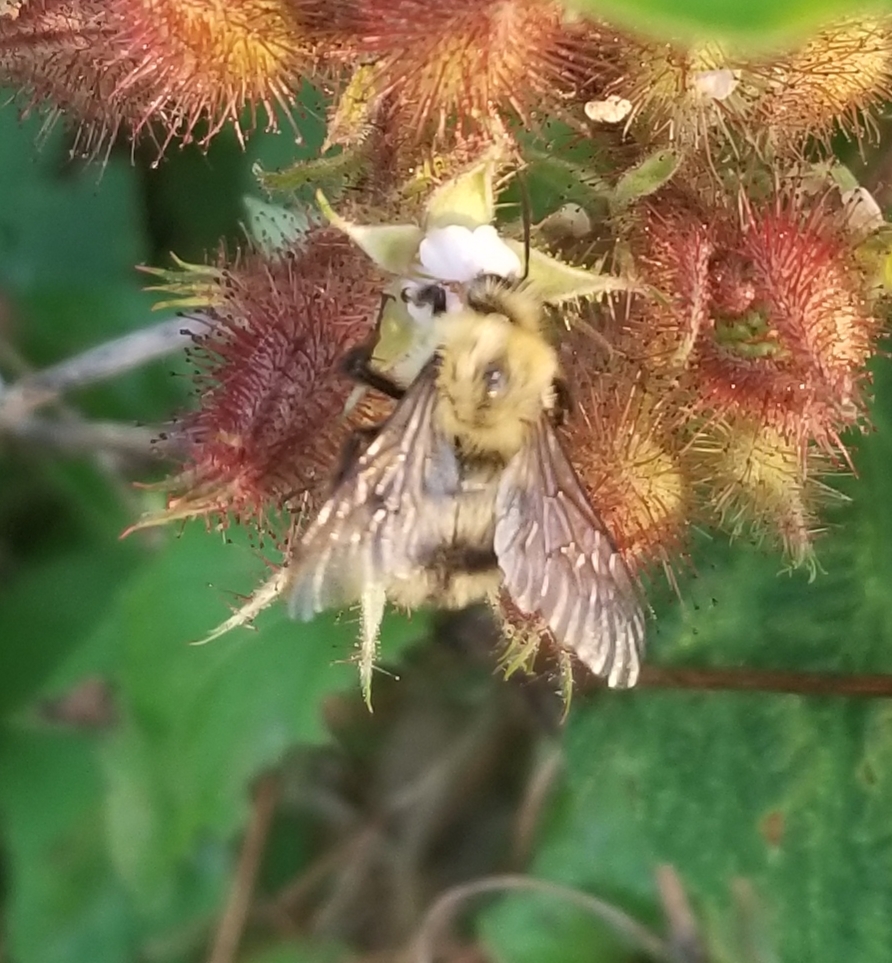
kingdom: Animalia
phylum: Arthropoda
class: Insecta
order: Hymenoptera
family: Apidae
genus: Bombus
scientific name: Bombus bimaculatus
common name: Two-spotted bumble bee
